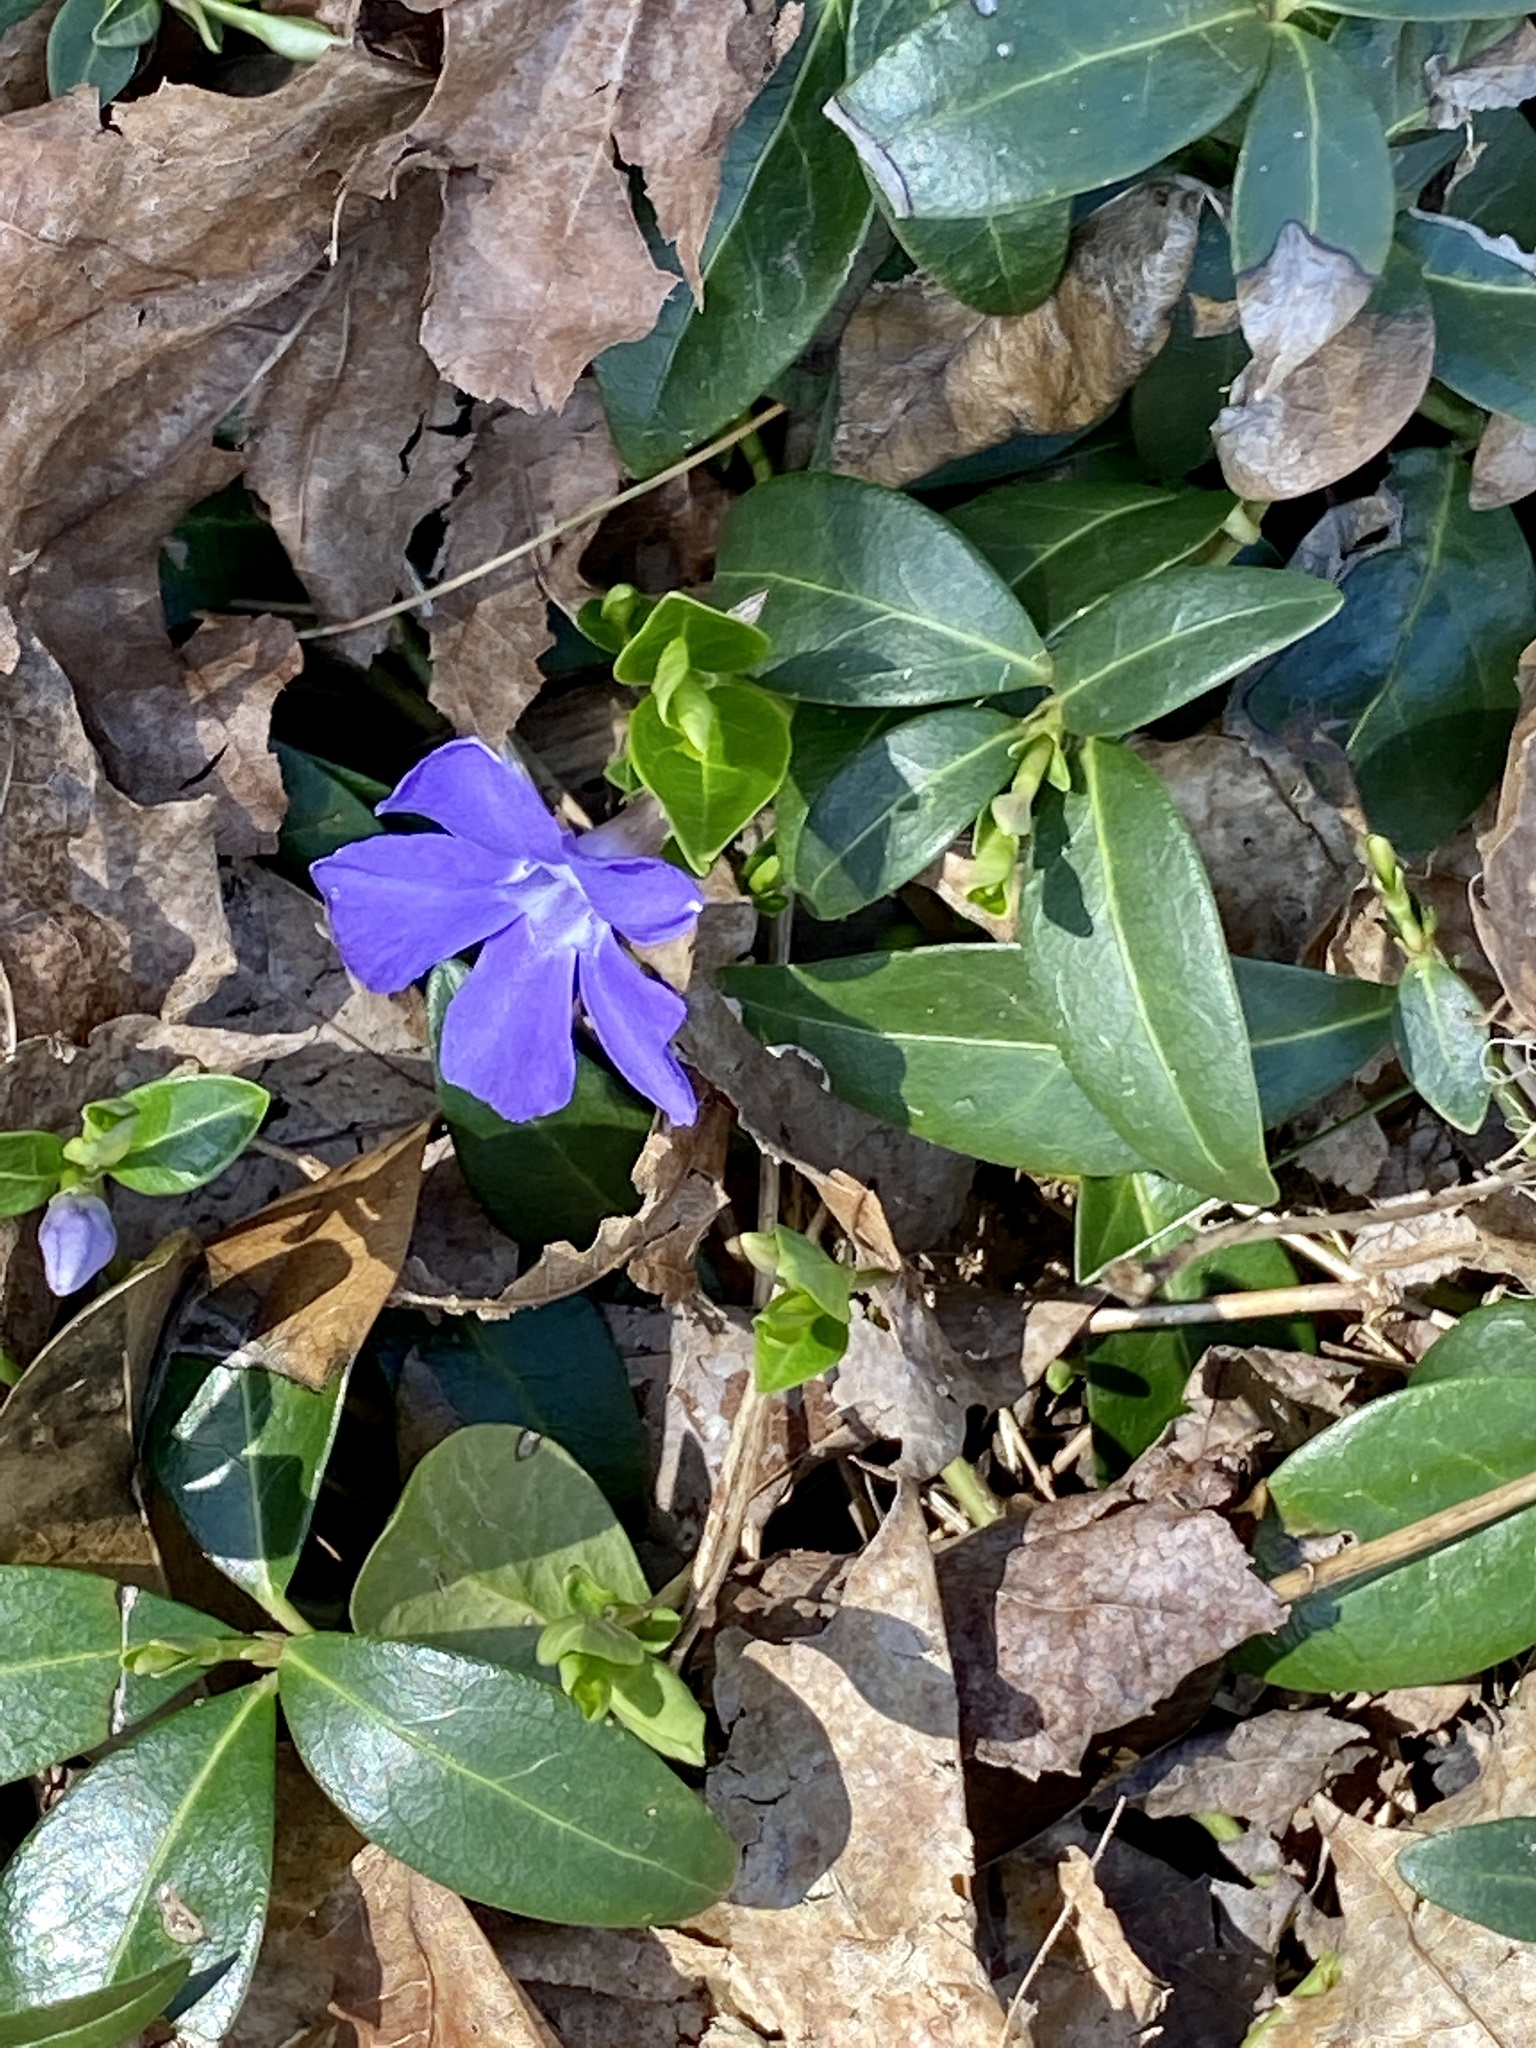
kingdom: Plantae
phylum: Tracheophyta
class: Magnoliopsida
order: Gentianales
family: Apocynaceae
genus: Vinca
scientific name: Vinca minor
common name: Lesser periwinkle
